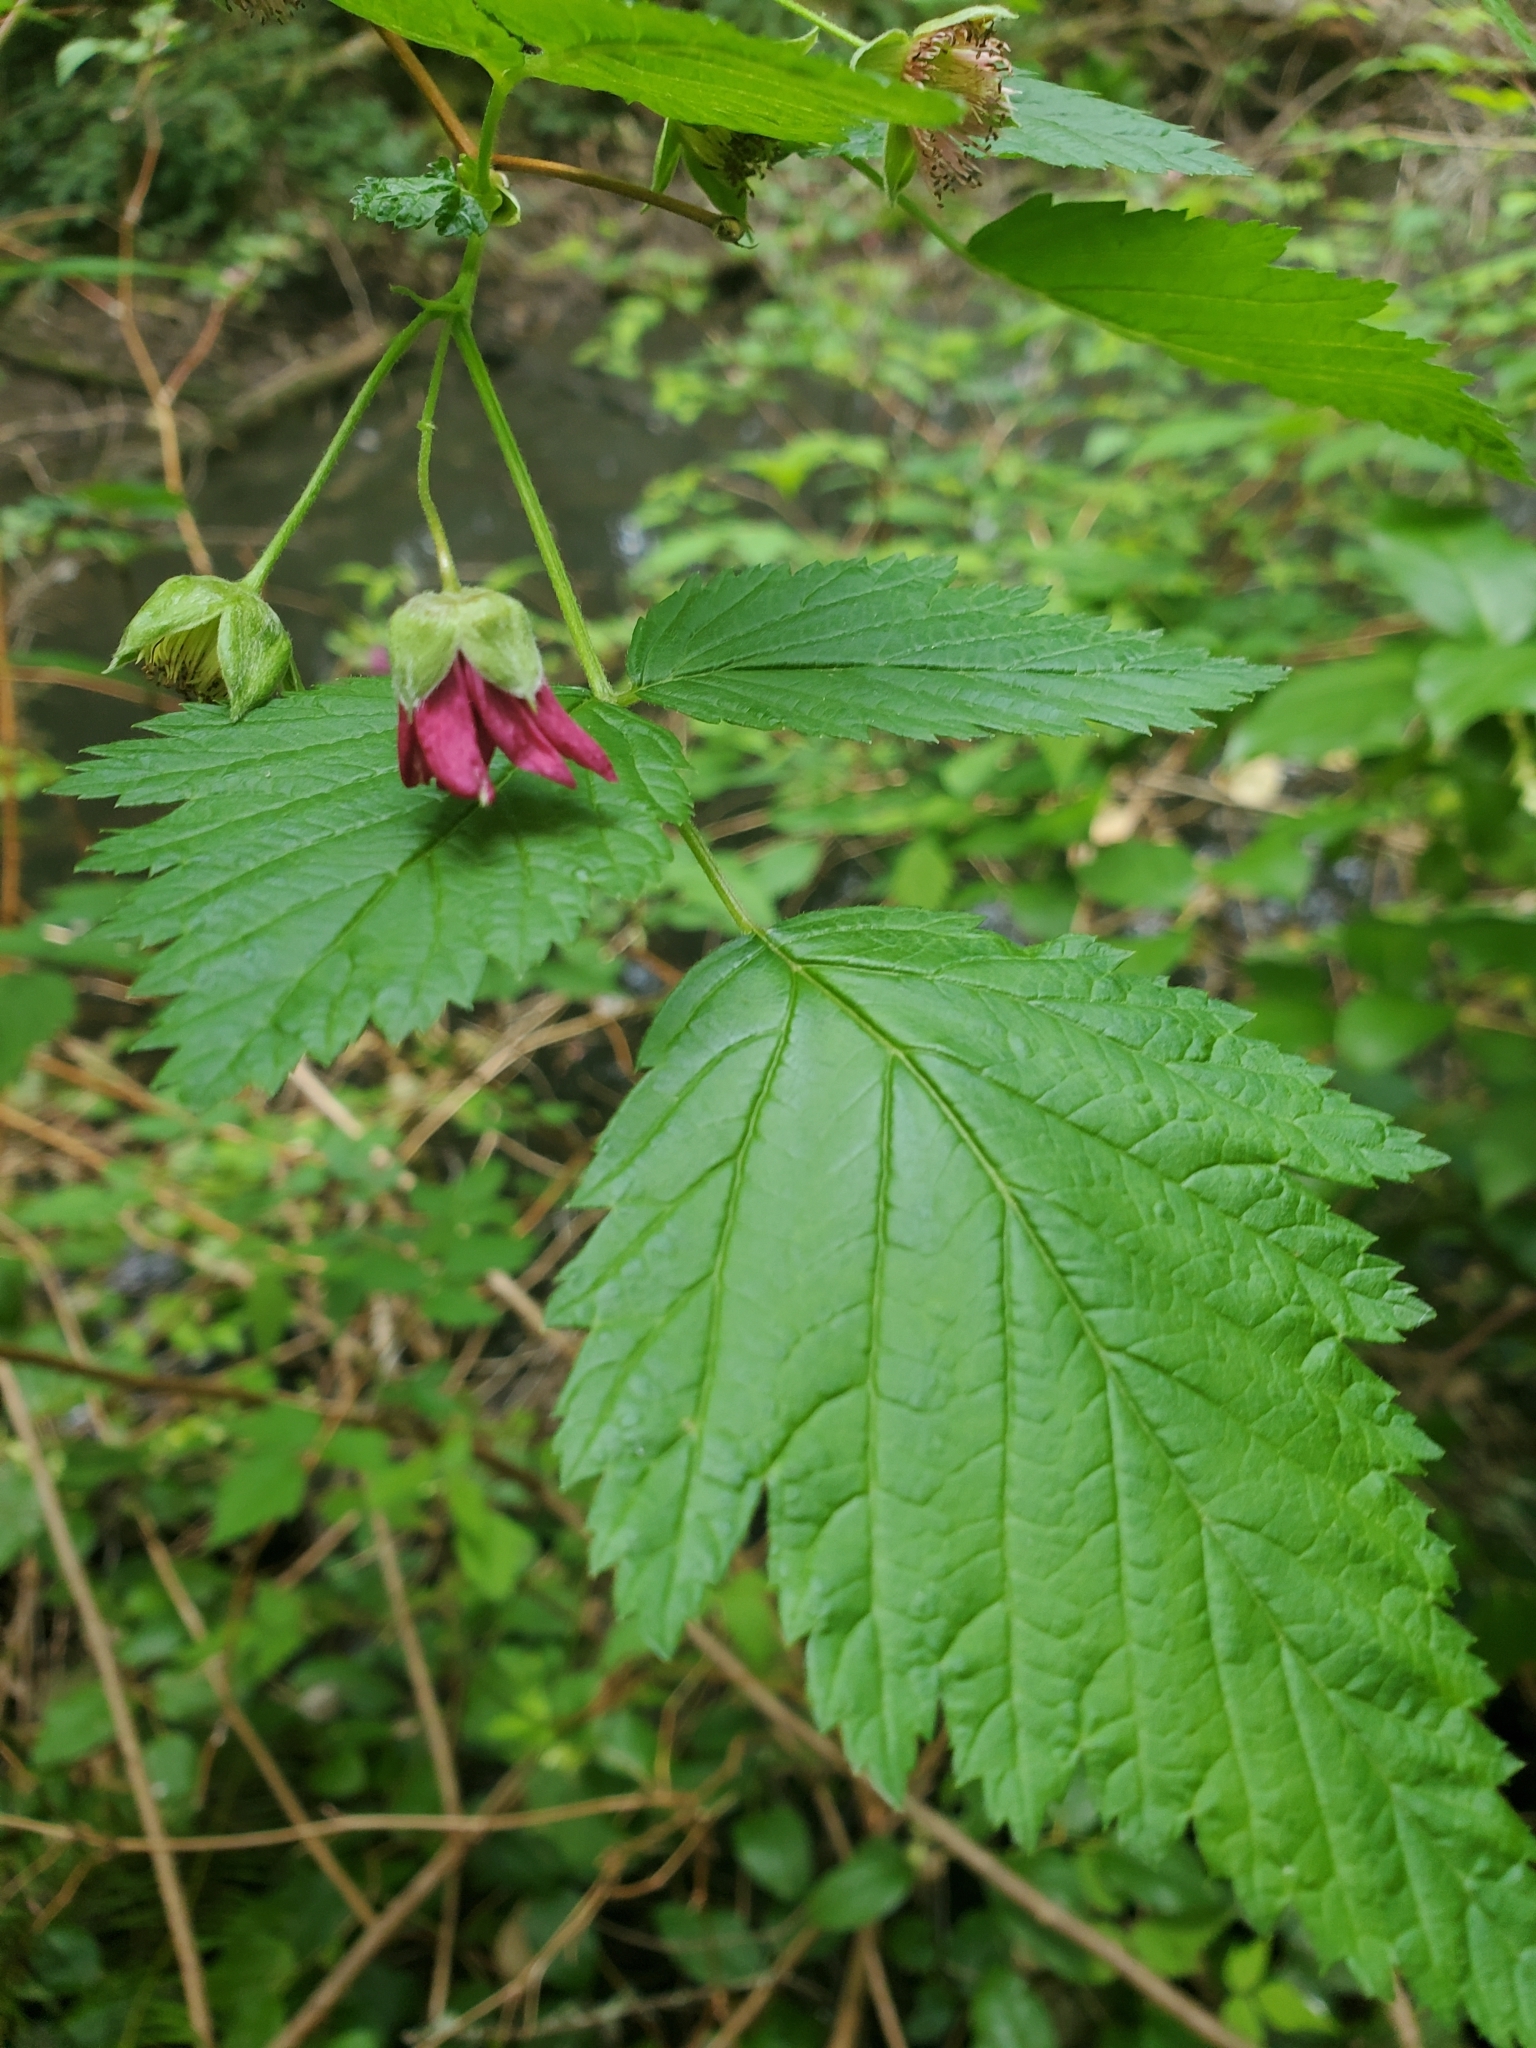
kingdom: Plantae
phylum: Tracheophyta
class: Magnoliopsida
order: Rosales
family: Rosaceae
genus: Rubus
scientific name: Rubus spectabilis
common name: Salmonberry
